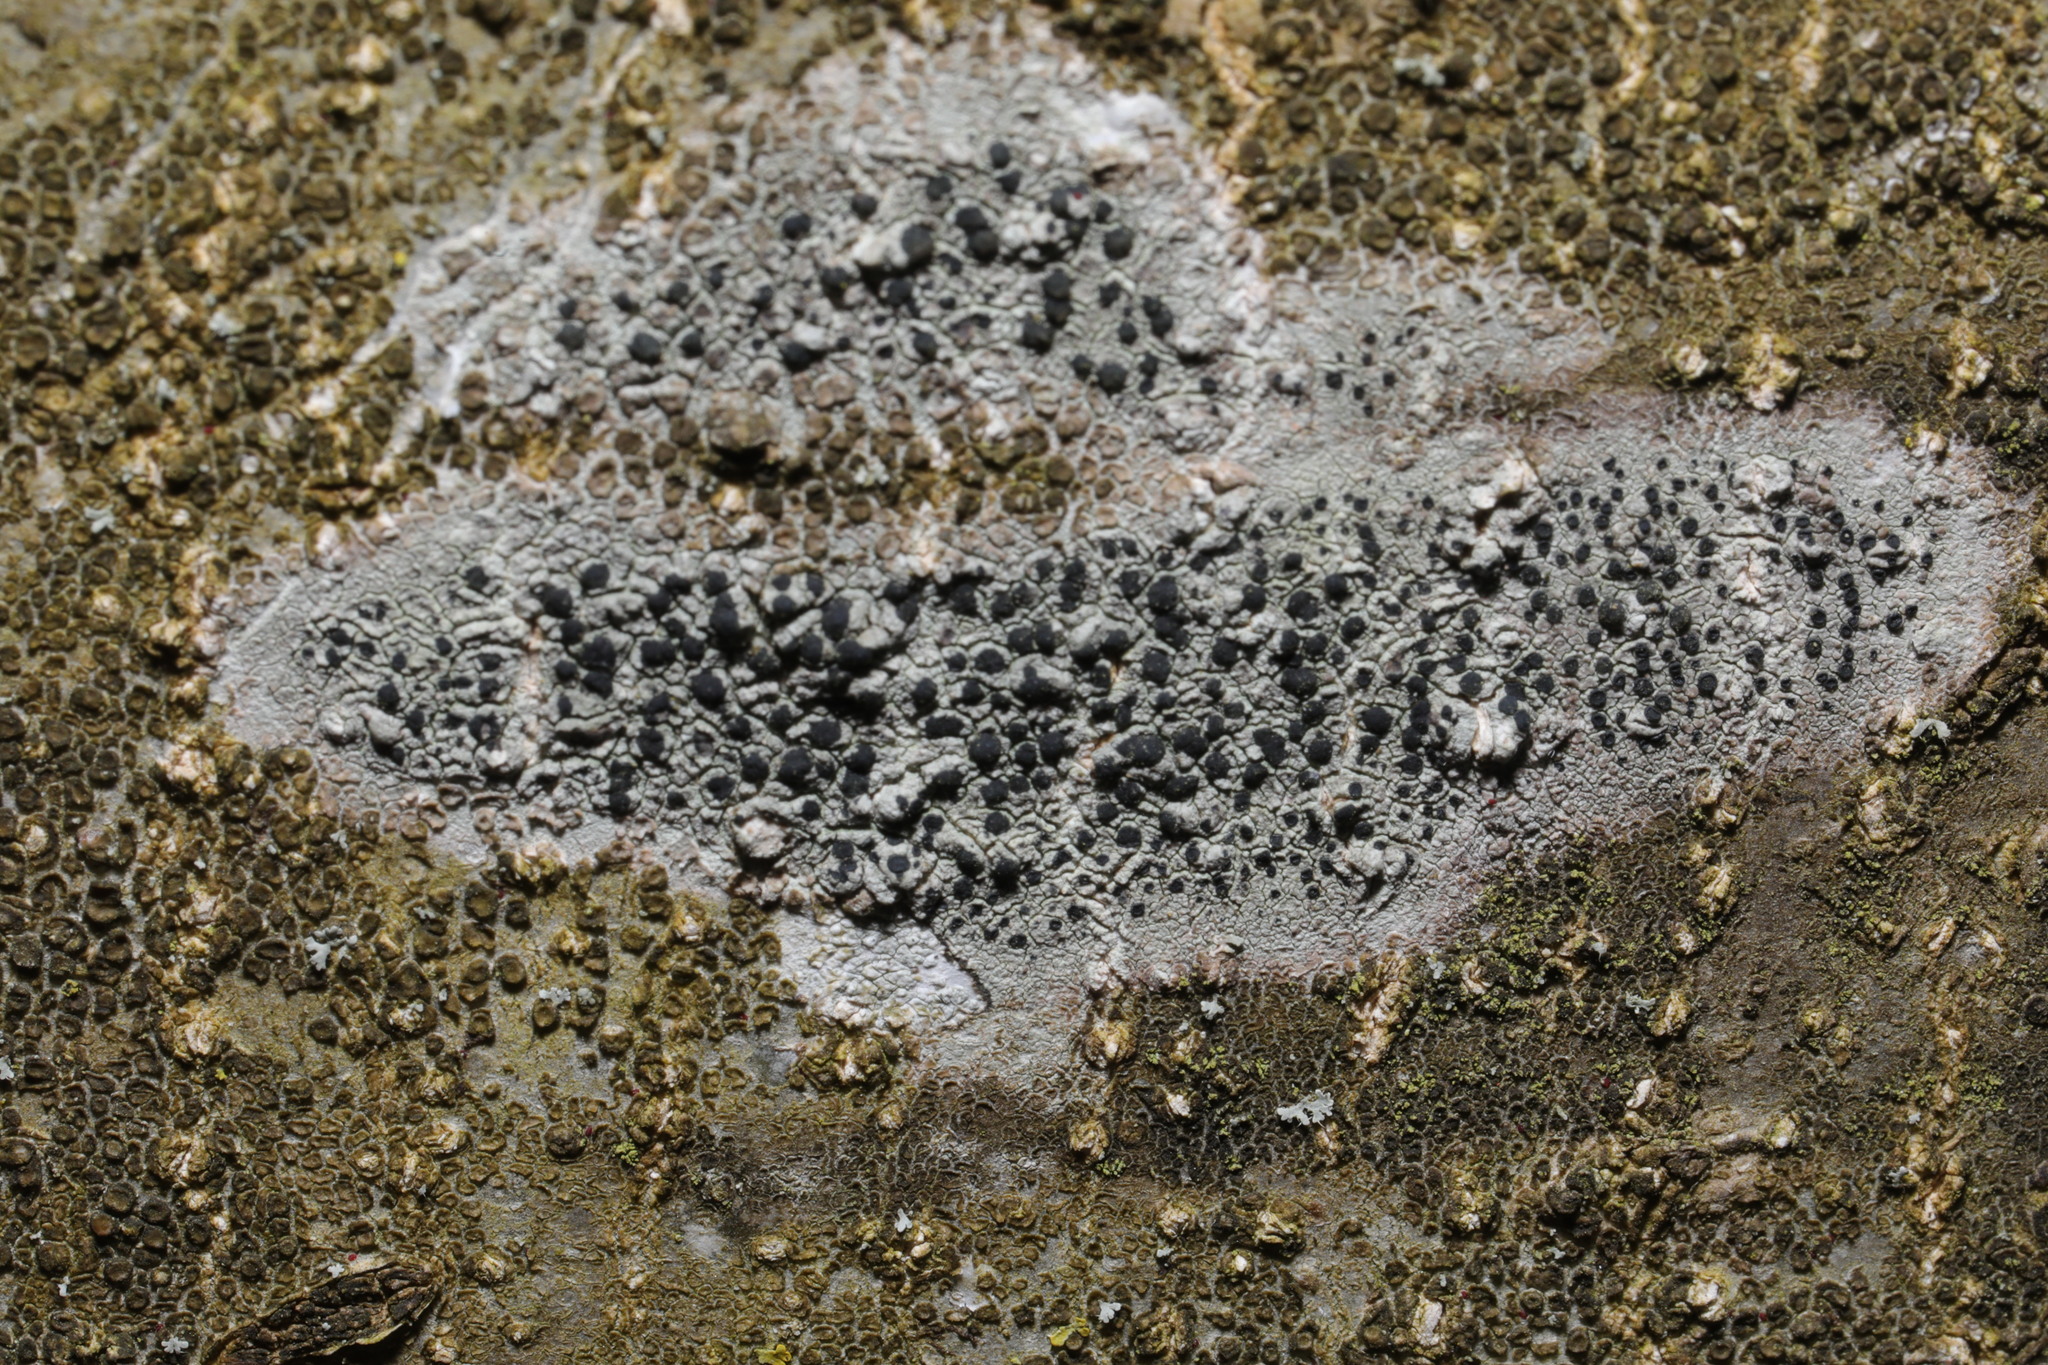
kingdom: Fungi
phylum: Ascomycota
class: Lecanoromycetes
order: Lecanorales
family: Lecanoraceae
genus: Lecidella
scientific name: Lecidella elaeochroma
